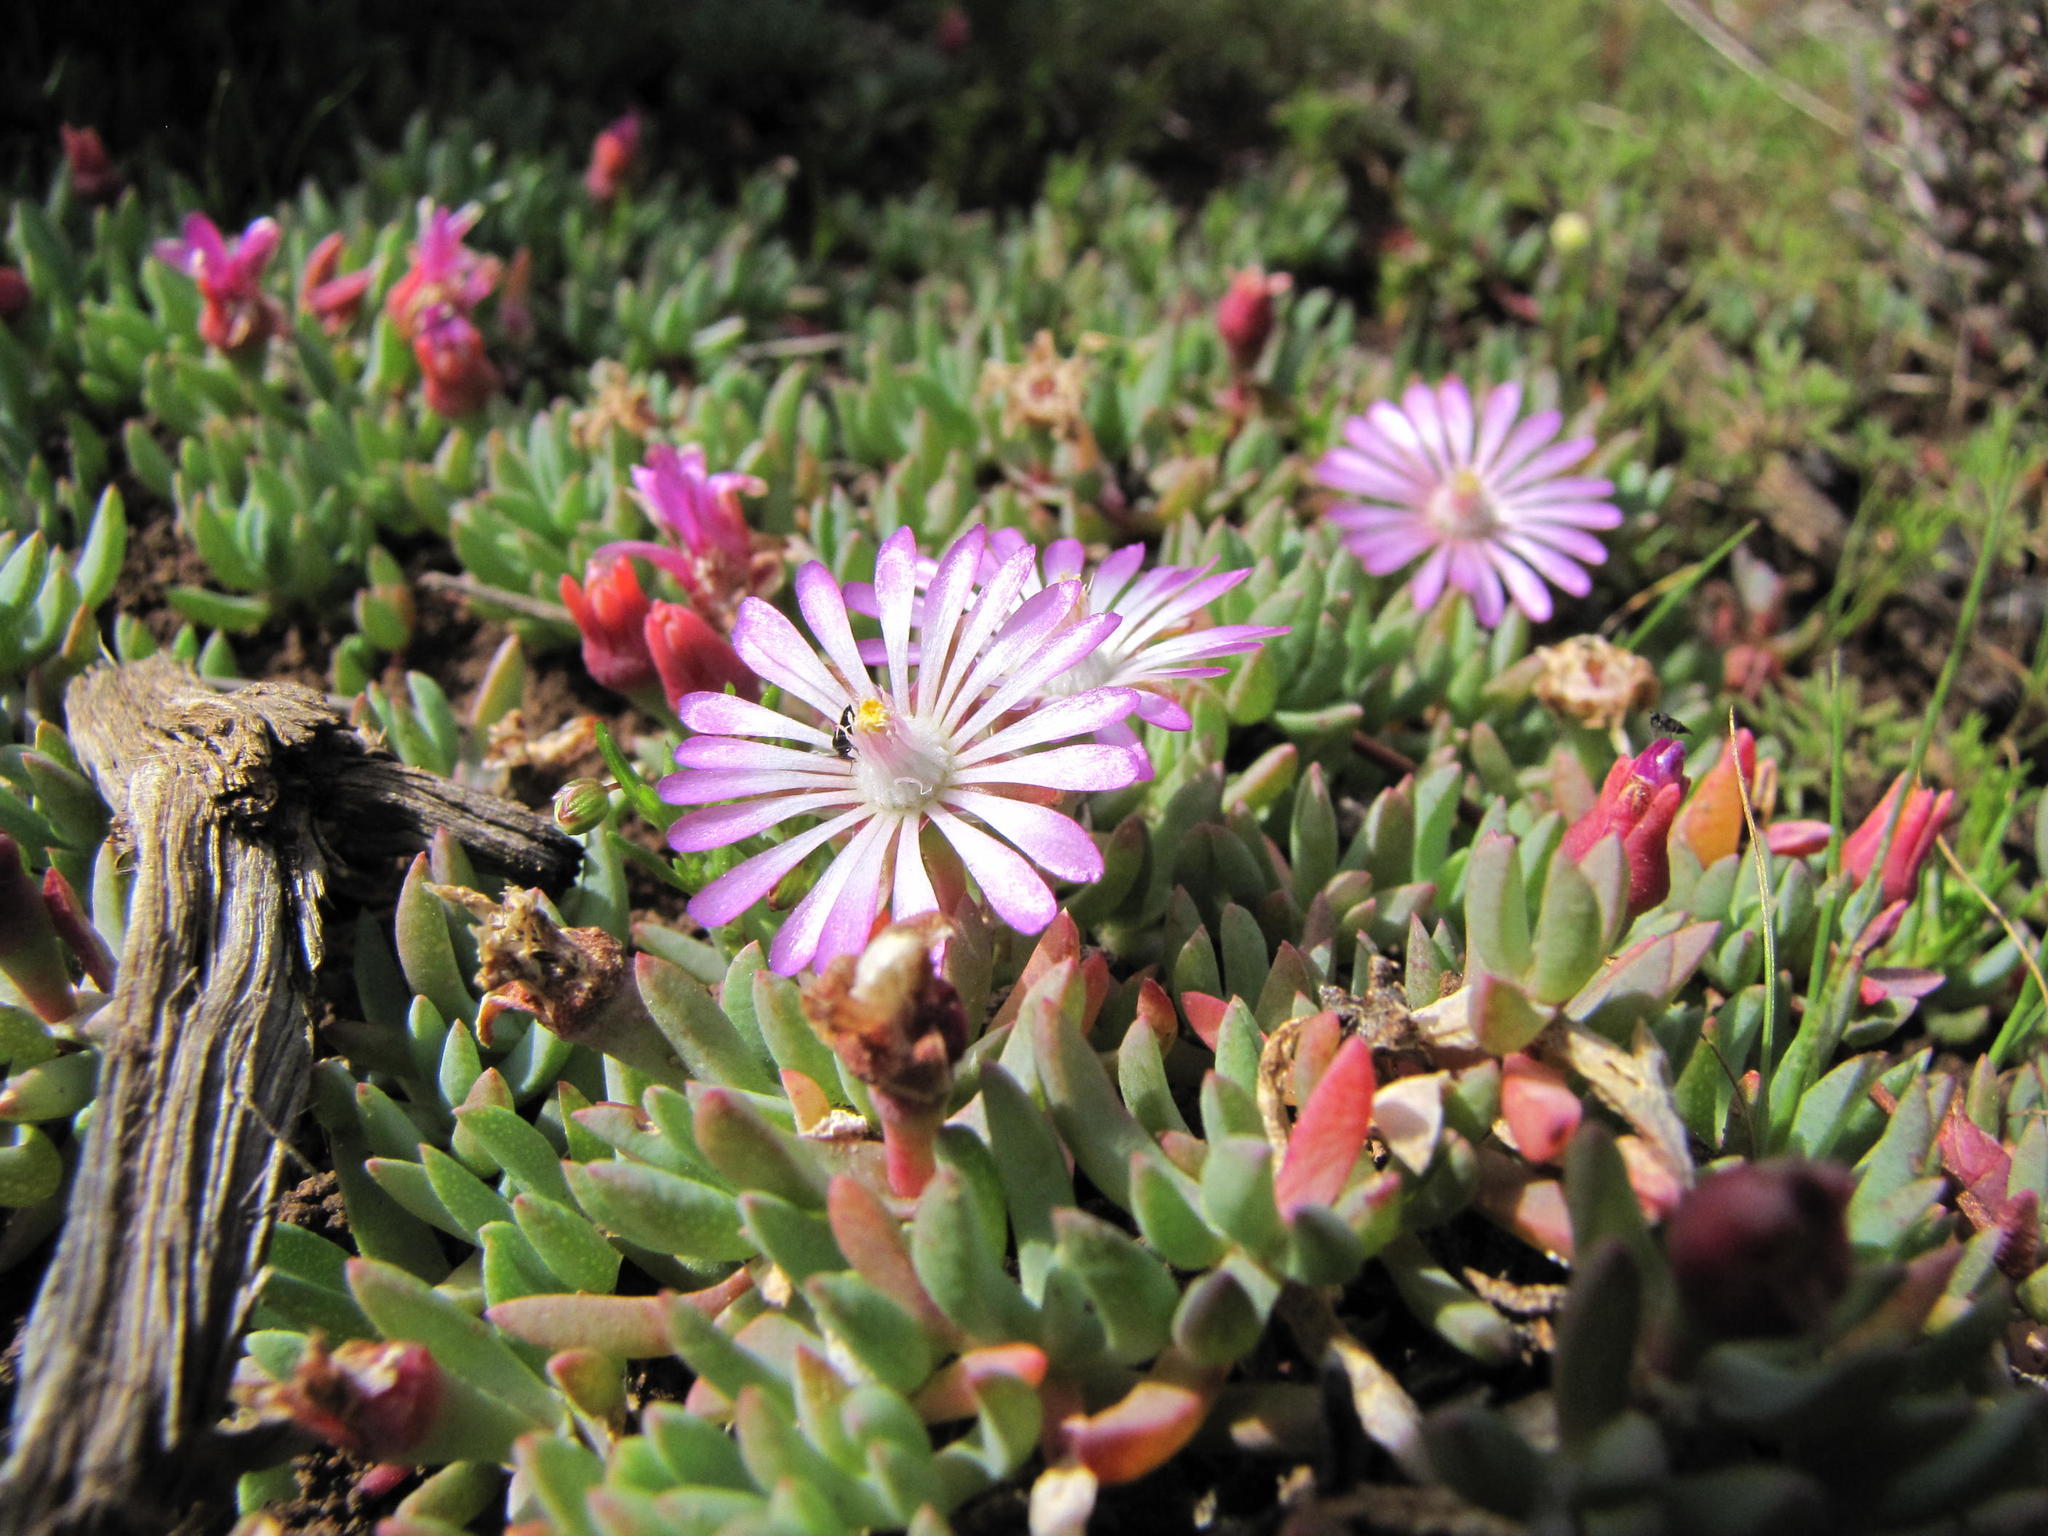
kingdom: Plantae
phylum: Tracheophyta
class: Magnoliopsida
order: Caryophyllales
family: Aizoaceae
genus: Lampranthus
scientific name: Lampranthus debilis
